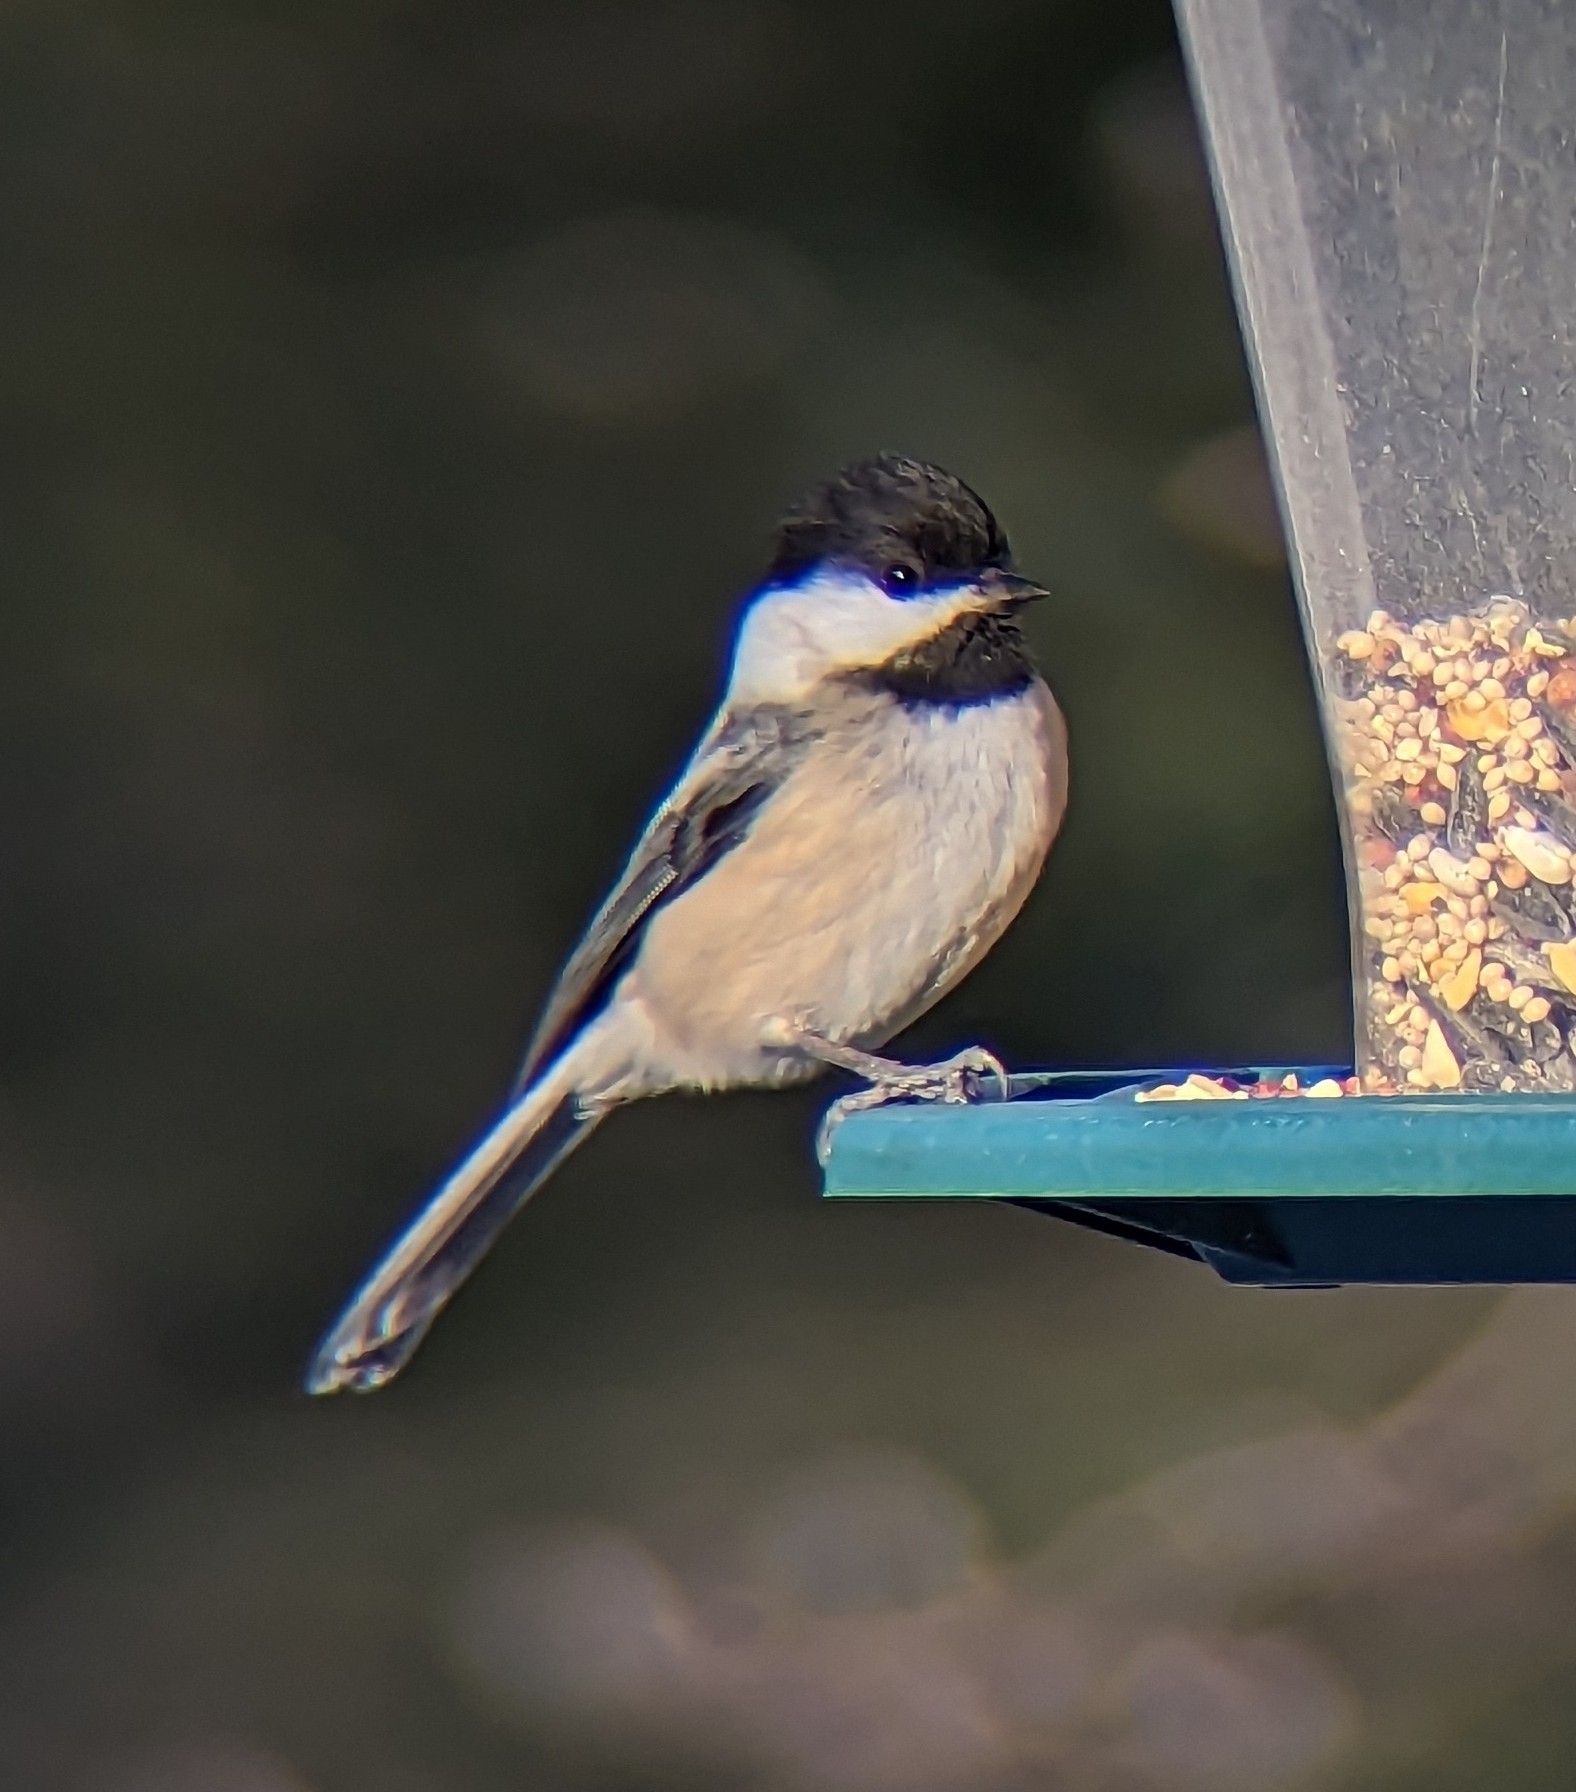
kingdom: Animalia
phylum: Chordata
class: Aves
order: Passeriformes
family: Paridae
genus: Poecile
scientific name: Poecile atricapillus
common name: Black-capped chickadee
